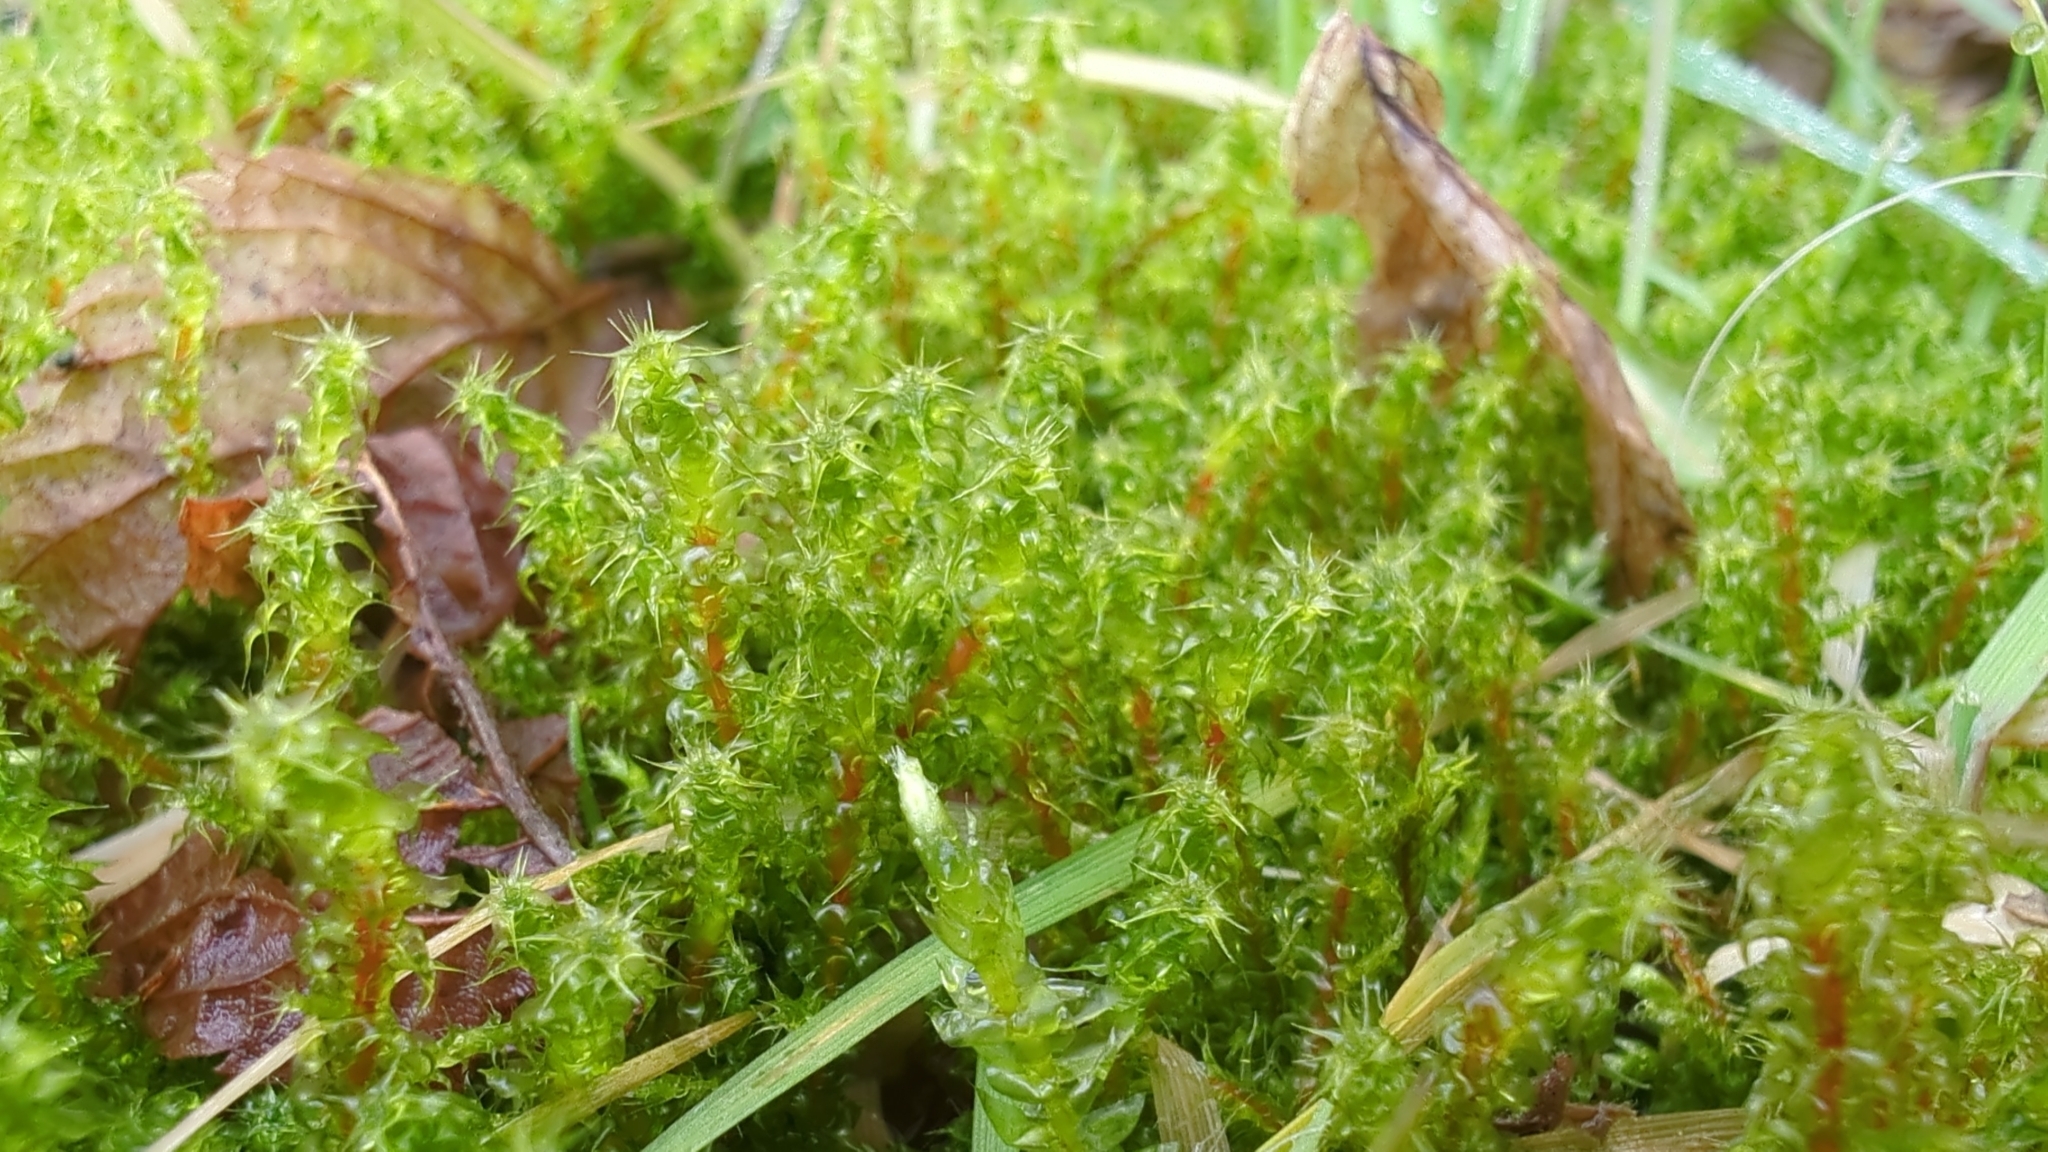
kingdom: Plantae
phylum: Bryophyta
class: Bryopsida
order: Hypnales
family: Hylocomiaceae
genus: Rhytidiadelphus
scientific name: Rhytidiadelphus squarrosus
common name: Springy turf-moss
